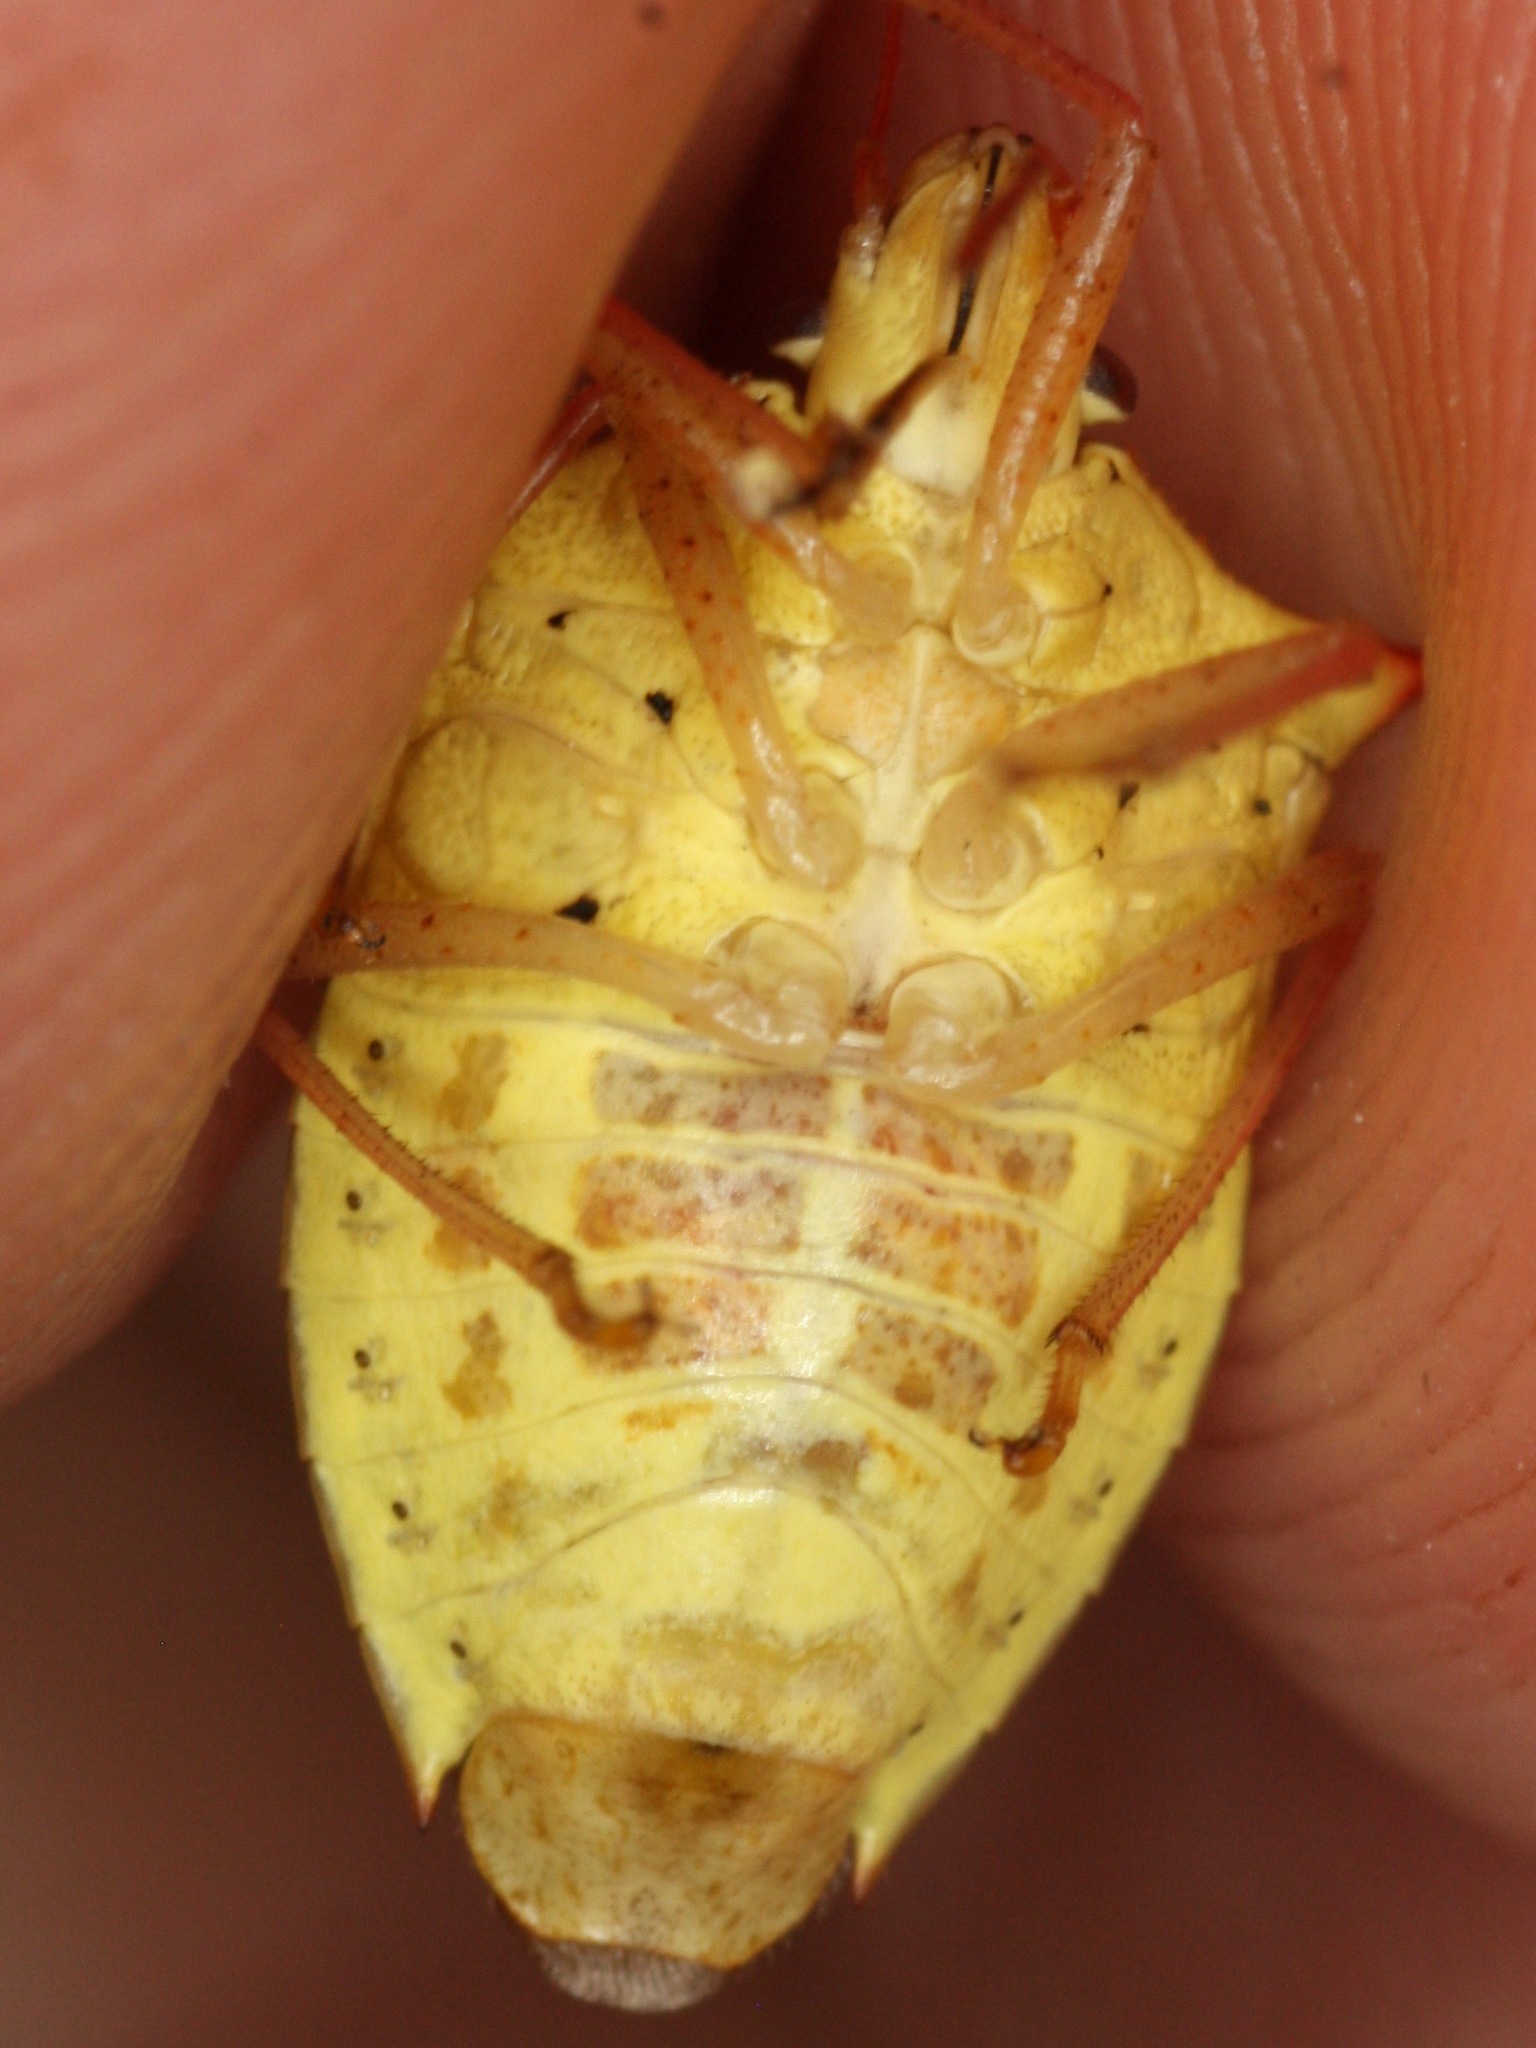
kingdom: Animalia
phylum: Arthropoda
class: Insecta
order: Hemiptera
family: Pentatomidae
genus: Euschistus
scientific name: Euschistus ictericus
